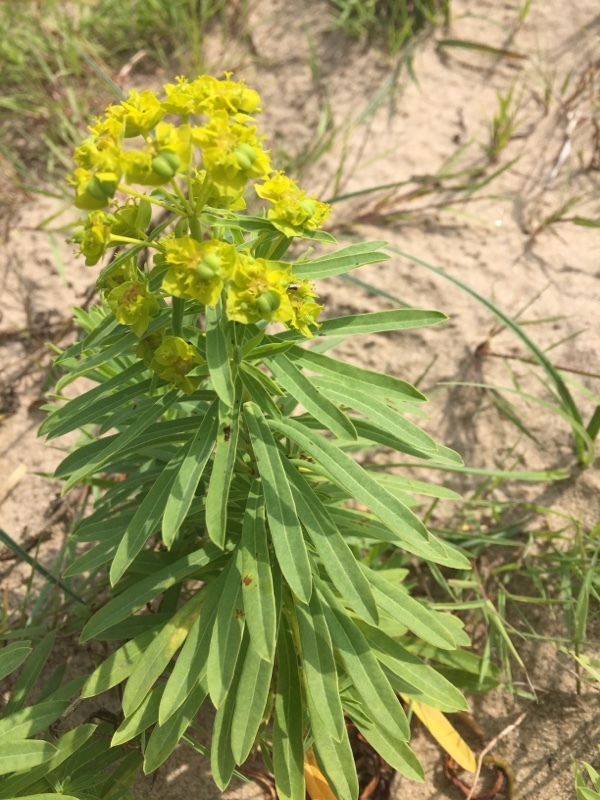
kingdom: Plantae
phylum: Tracheophyta
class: Magnoliopsida
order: Malpighiales
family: Euphorbiaceae
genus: Euphorbia
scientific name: Euphorbia esula
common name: Leafy spurge
